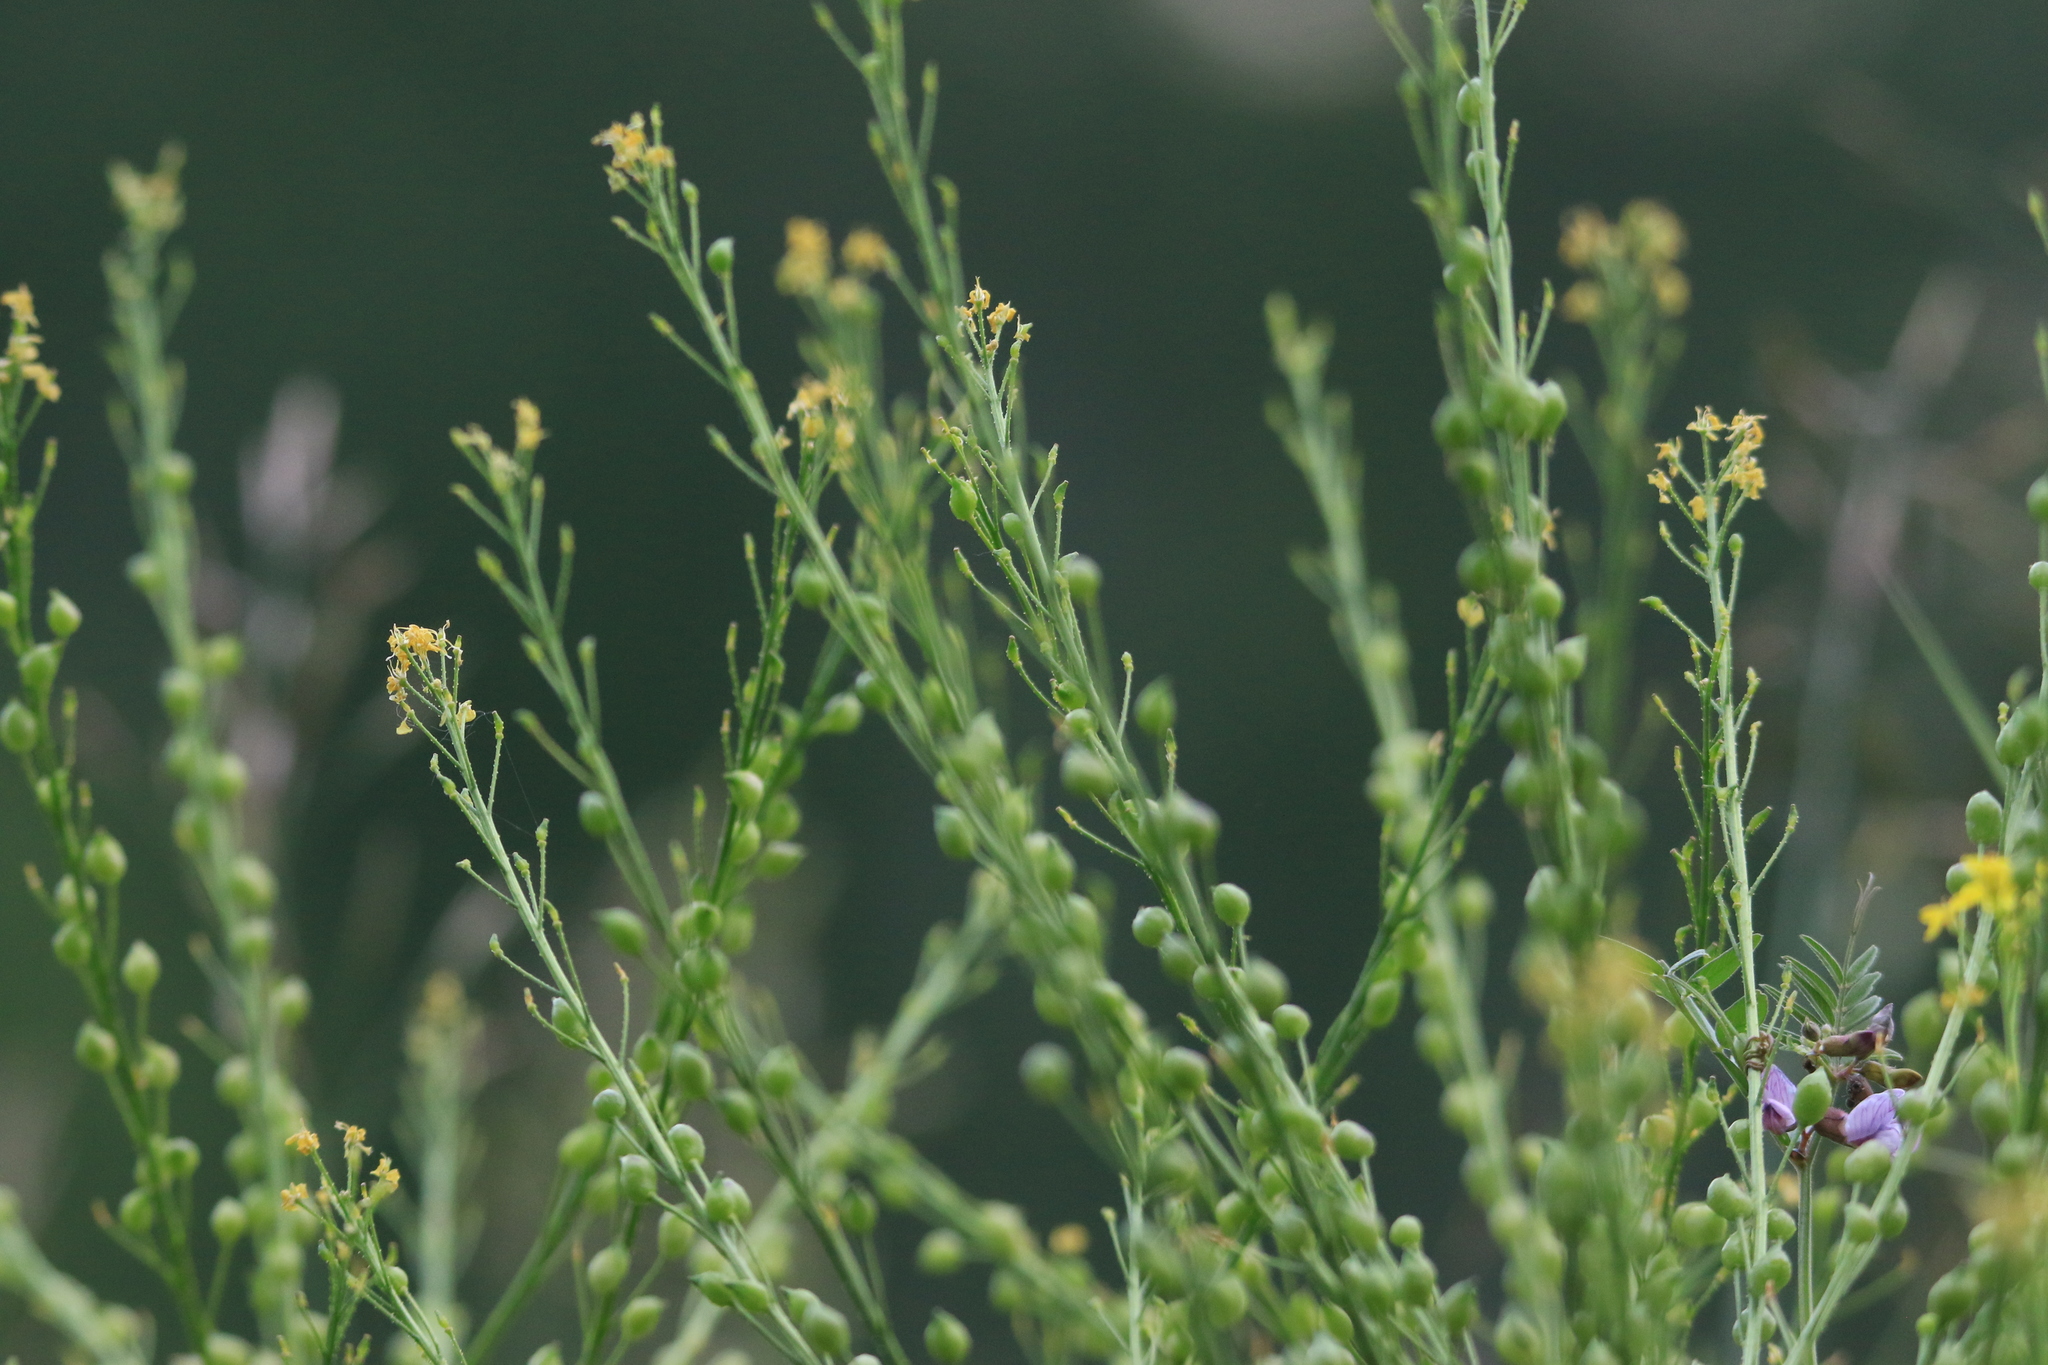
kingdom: Plantae
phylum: Tracheophyta
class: Magnoliopsida
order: Brassicales
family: Brassicaceae
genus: Bunias
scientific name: Bunias orientalis
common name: Warty-cabbage
